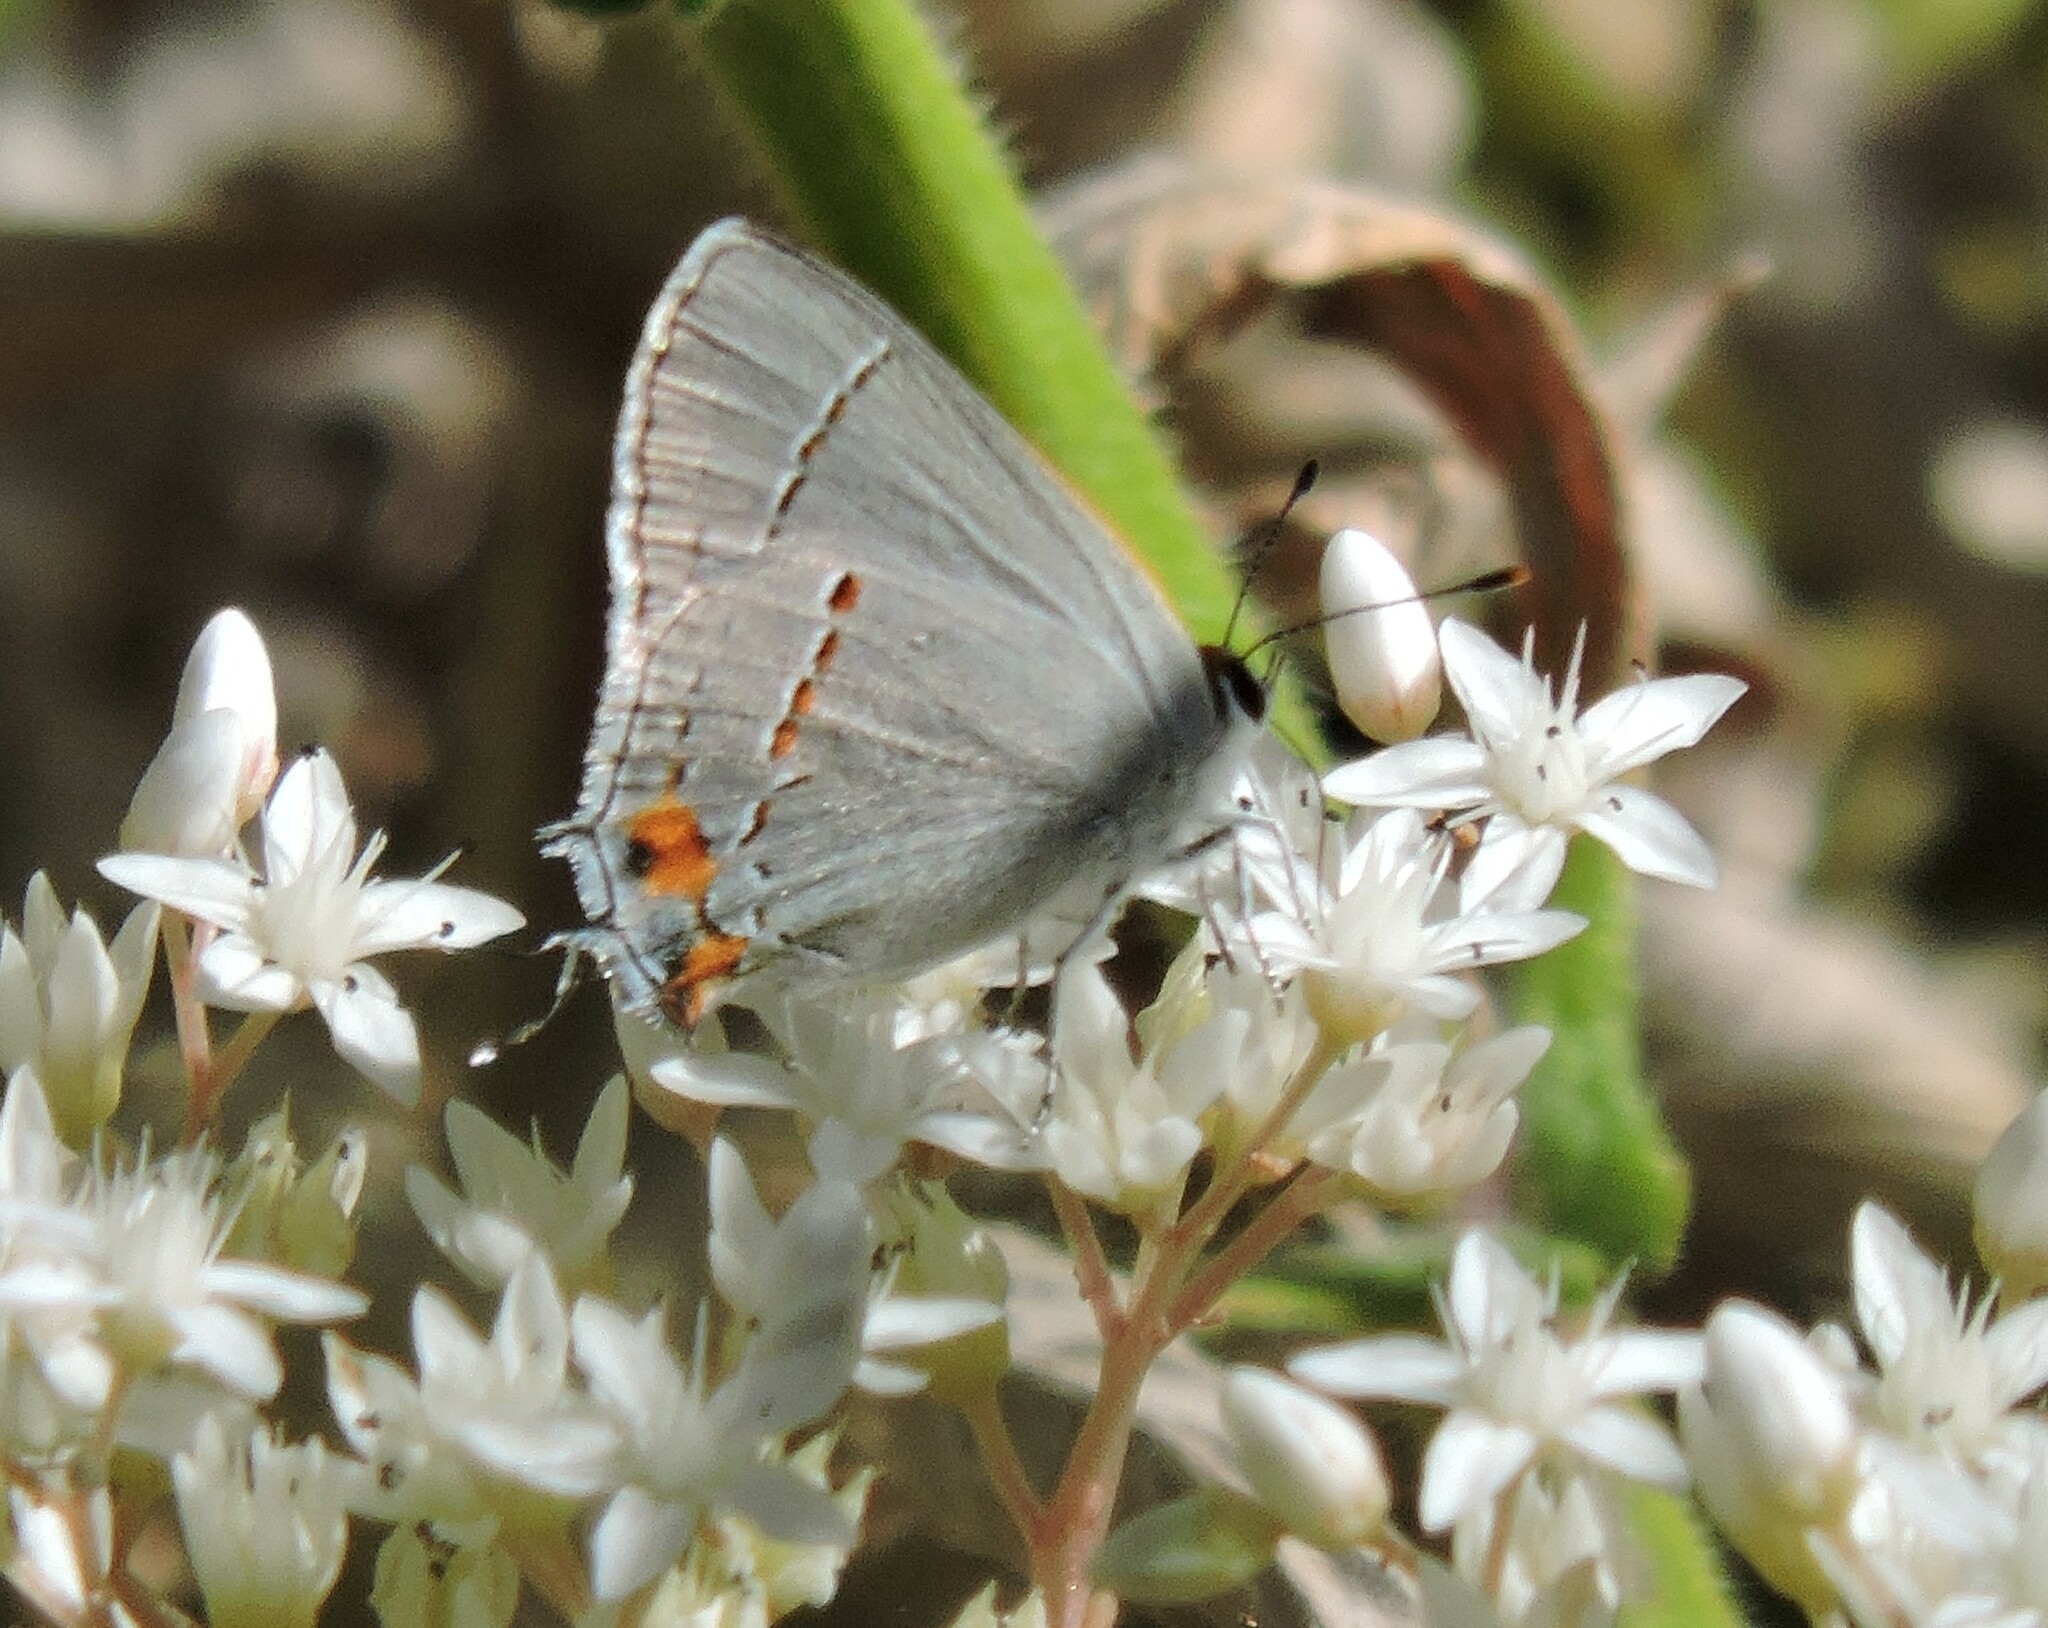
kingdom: Animalia
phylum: Arthropoda
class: Insecta
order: Lepidoptera
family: Lycaenidae
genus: Strymon
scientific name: Strymon melinus
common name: Gray hairstreak
